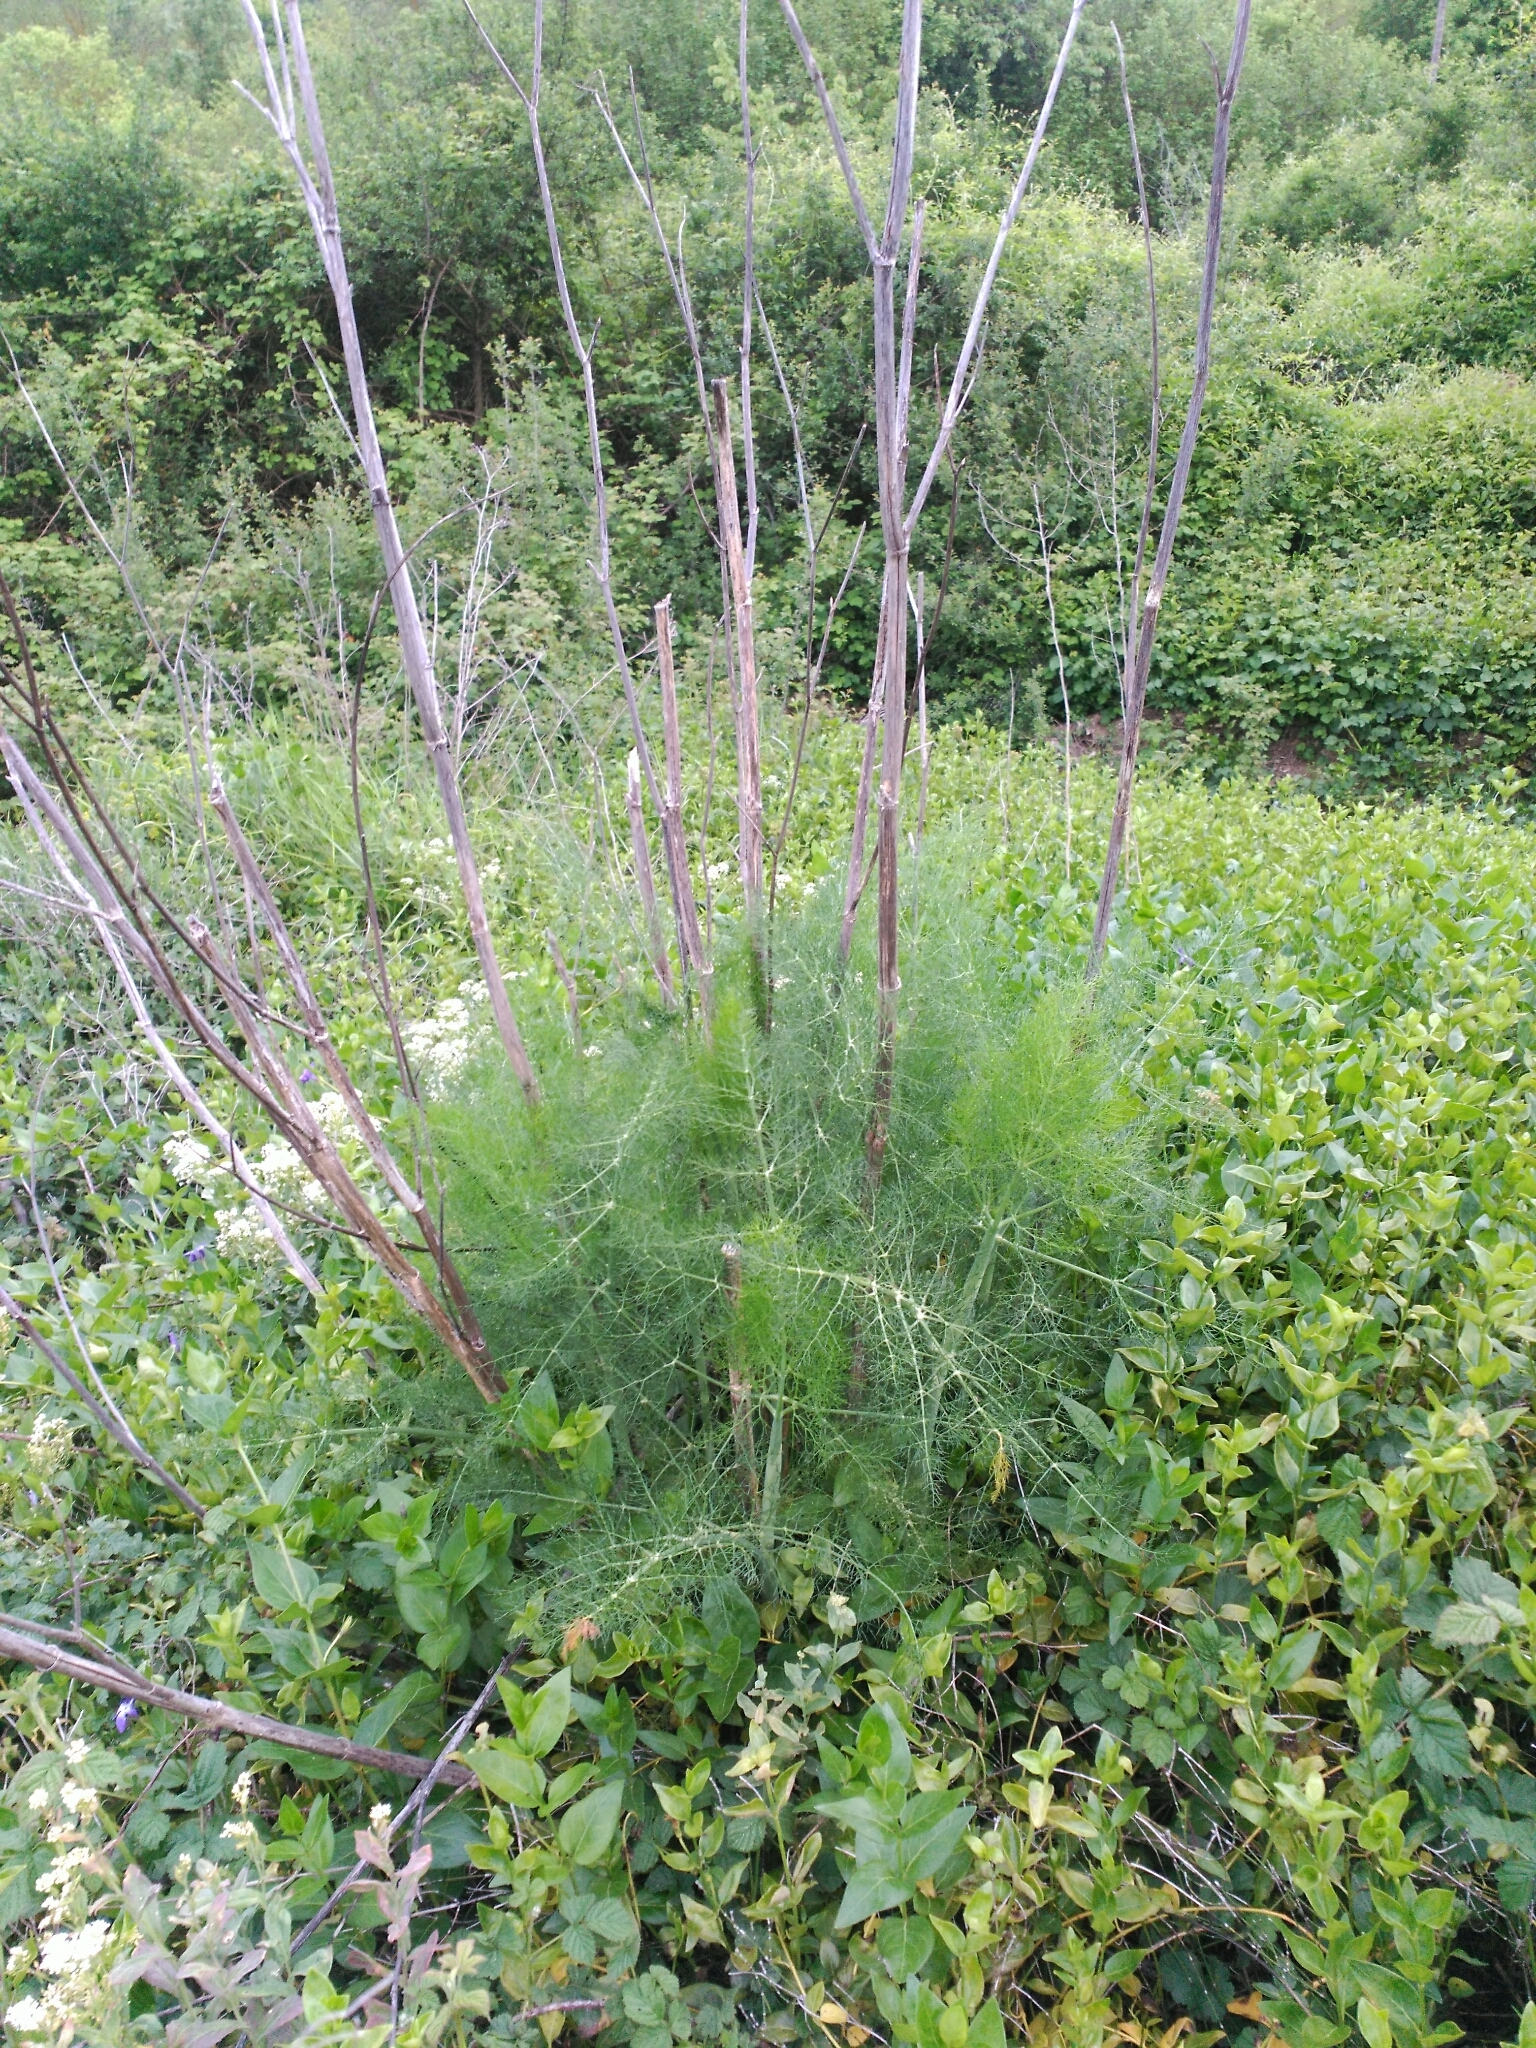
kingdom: Plantae
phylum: Tracheophyta
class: Magnoliopsida
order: Apiales
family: Apiaceae
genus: Foeniculum
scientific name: Foeniculum vulgare
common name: Fennel
